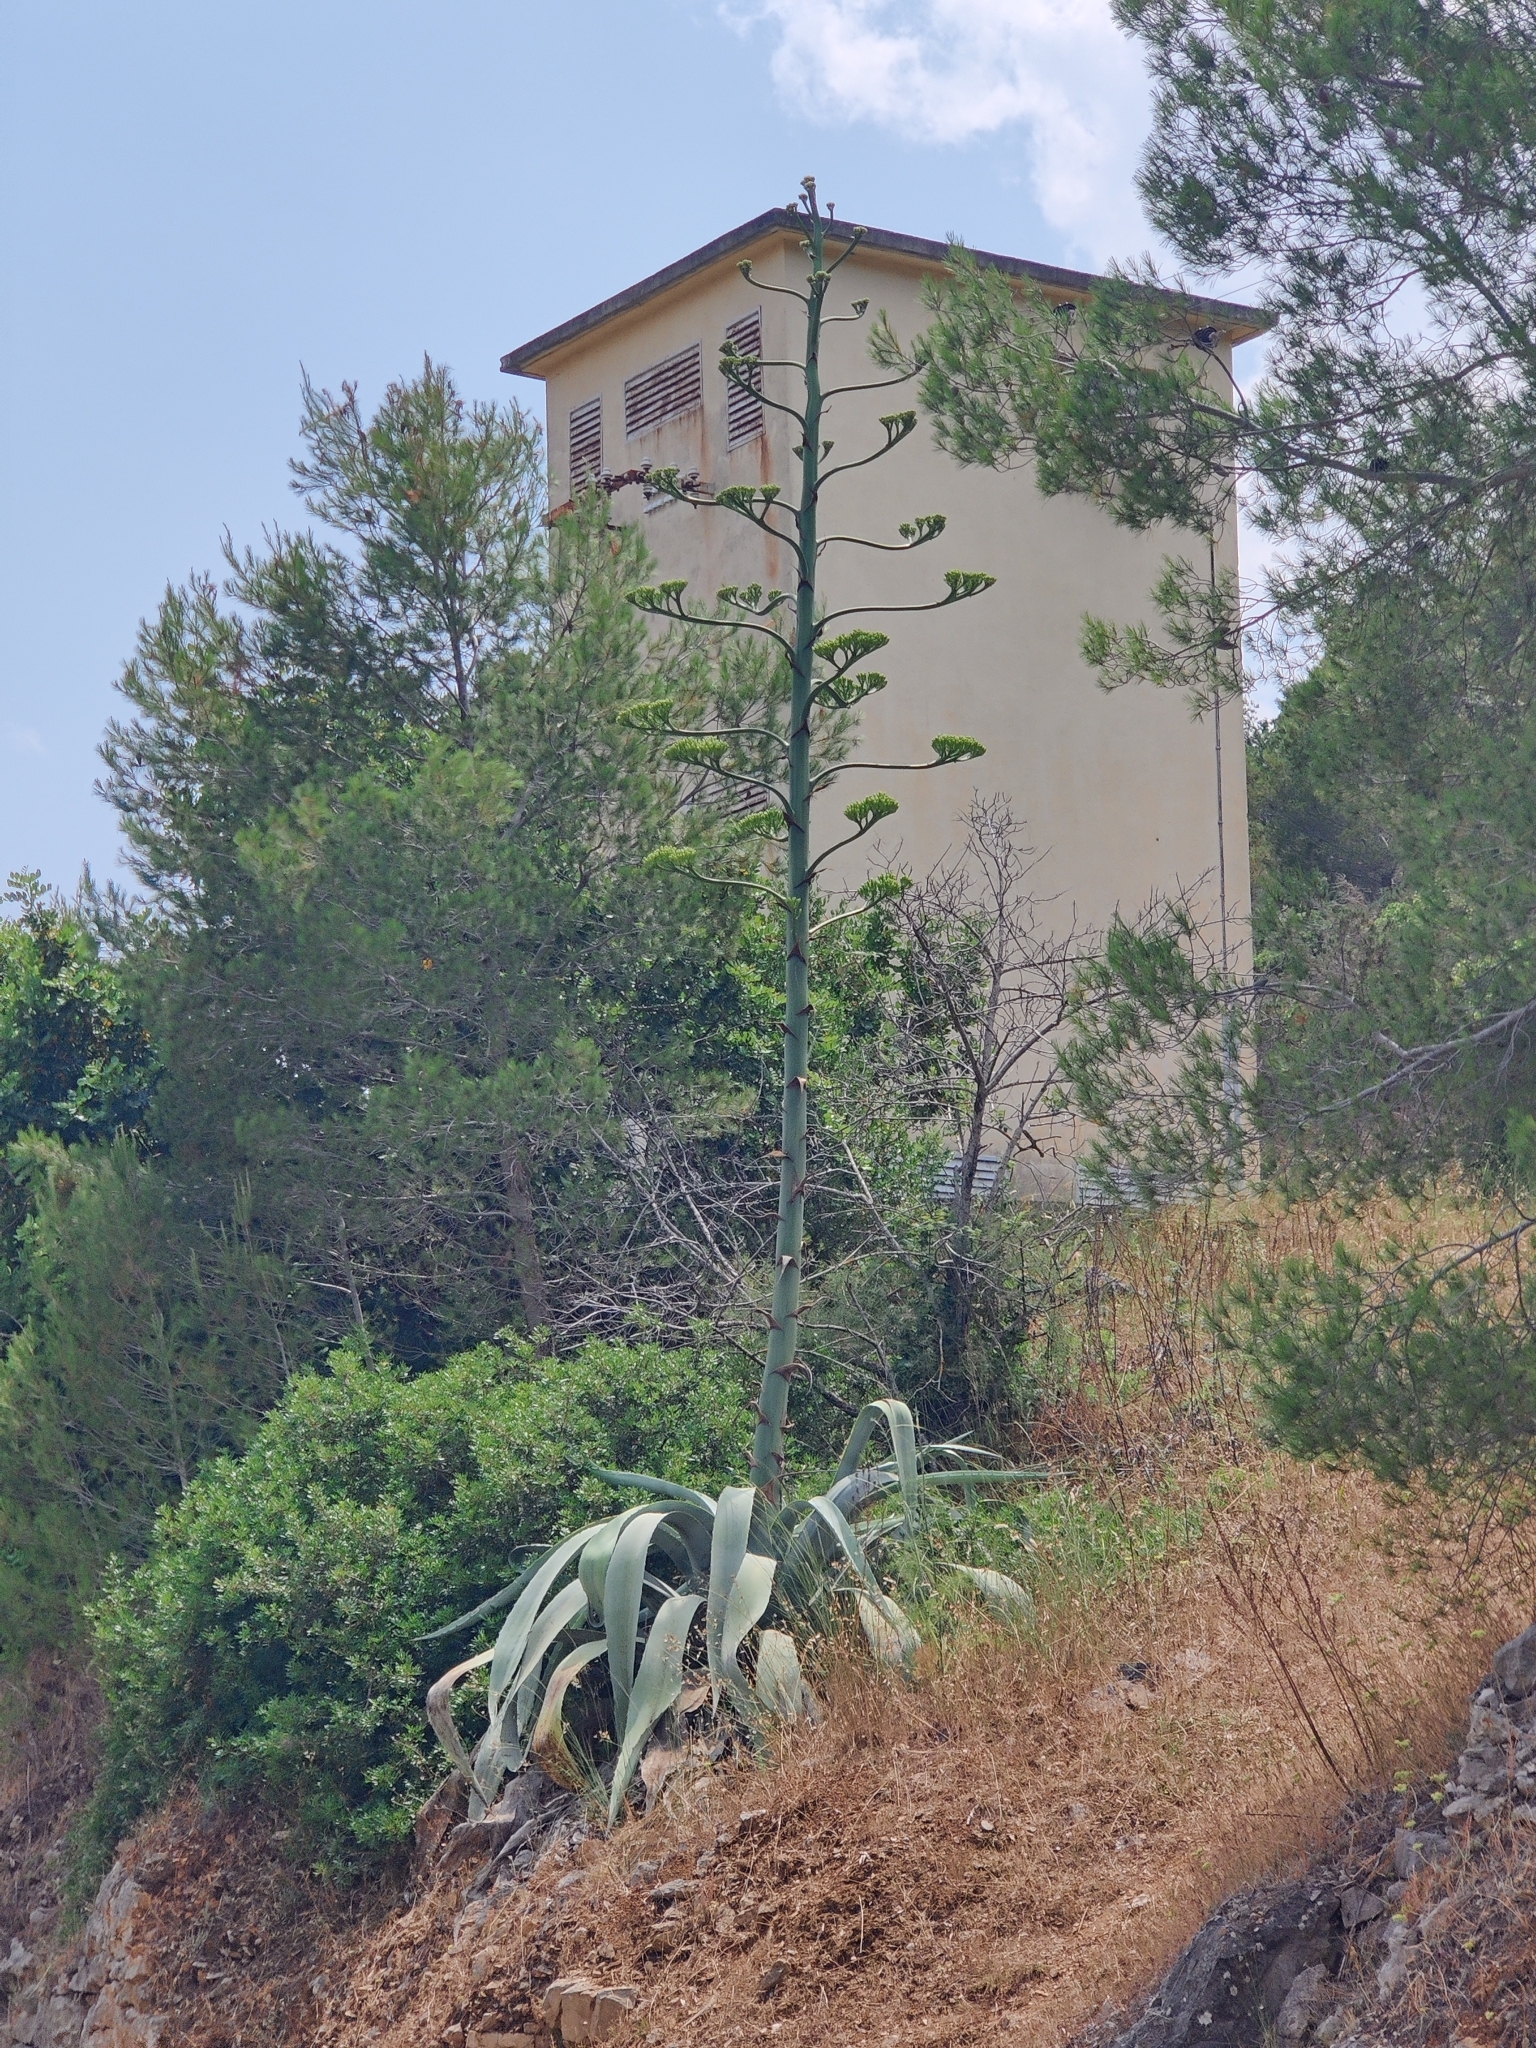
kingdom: Plantae
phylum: Tracheophyta
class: Liliopsida
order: Asparagales
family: Asparagaceae
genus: Agave
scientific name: Agave americana
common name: Centuryplant
